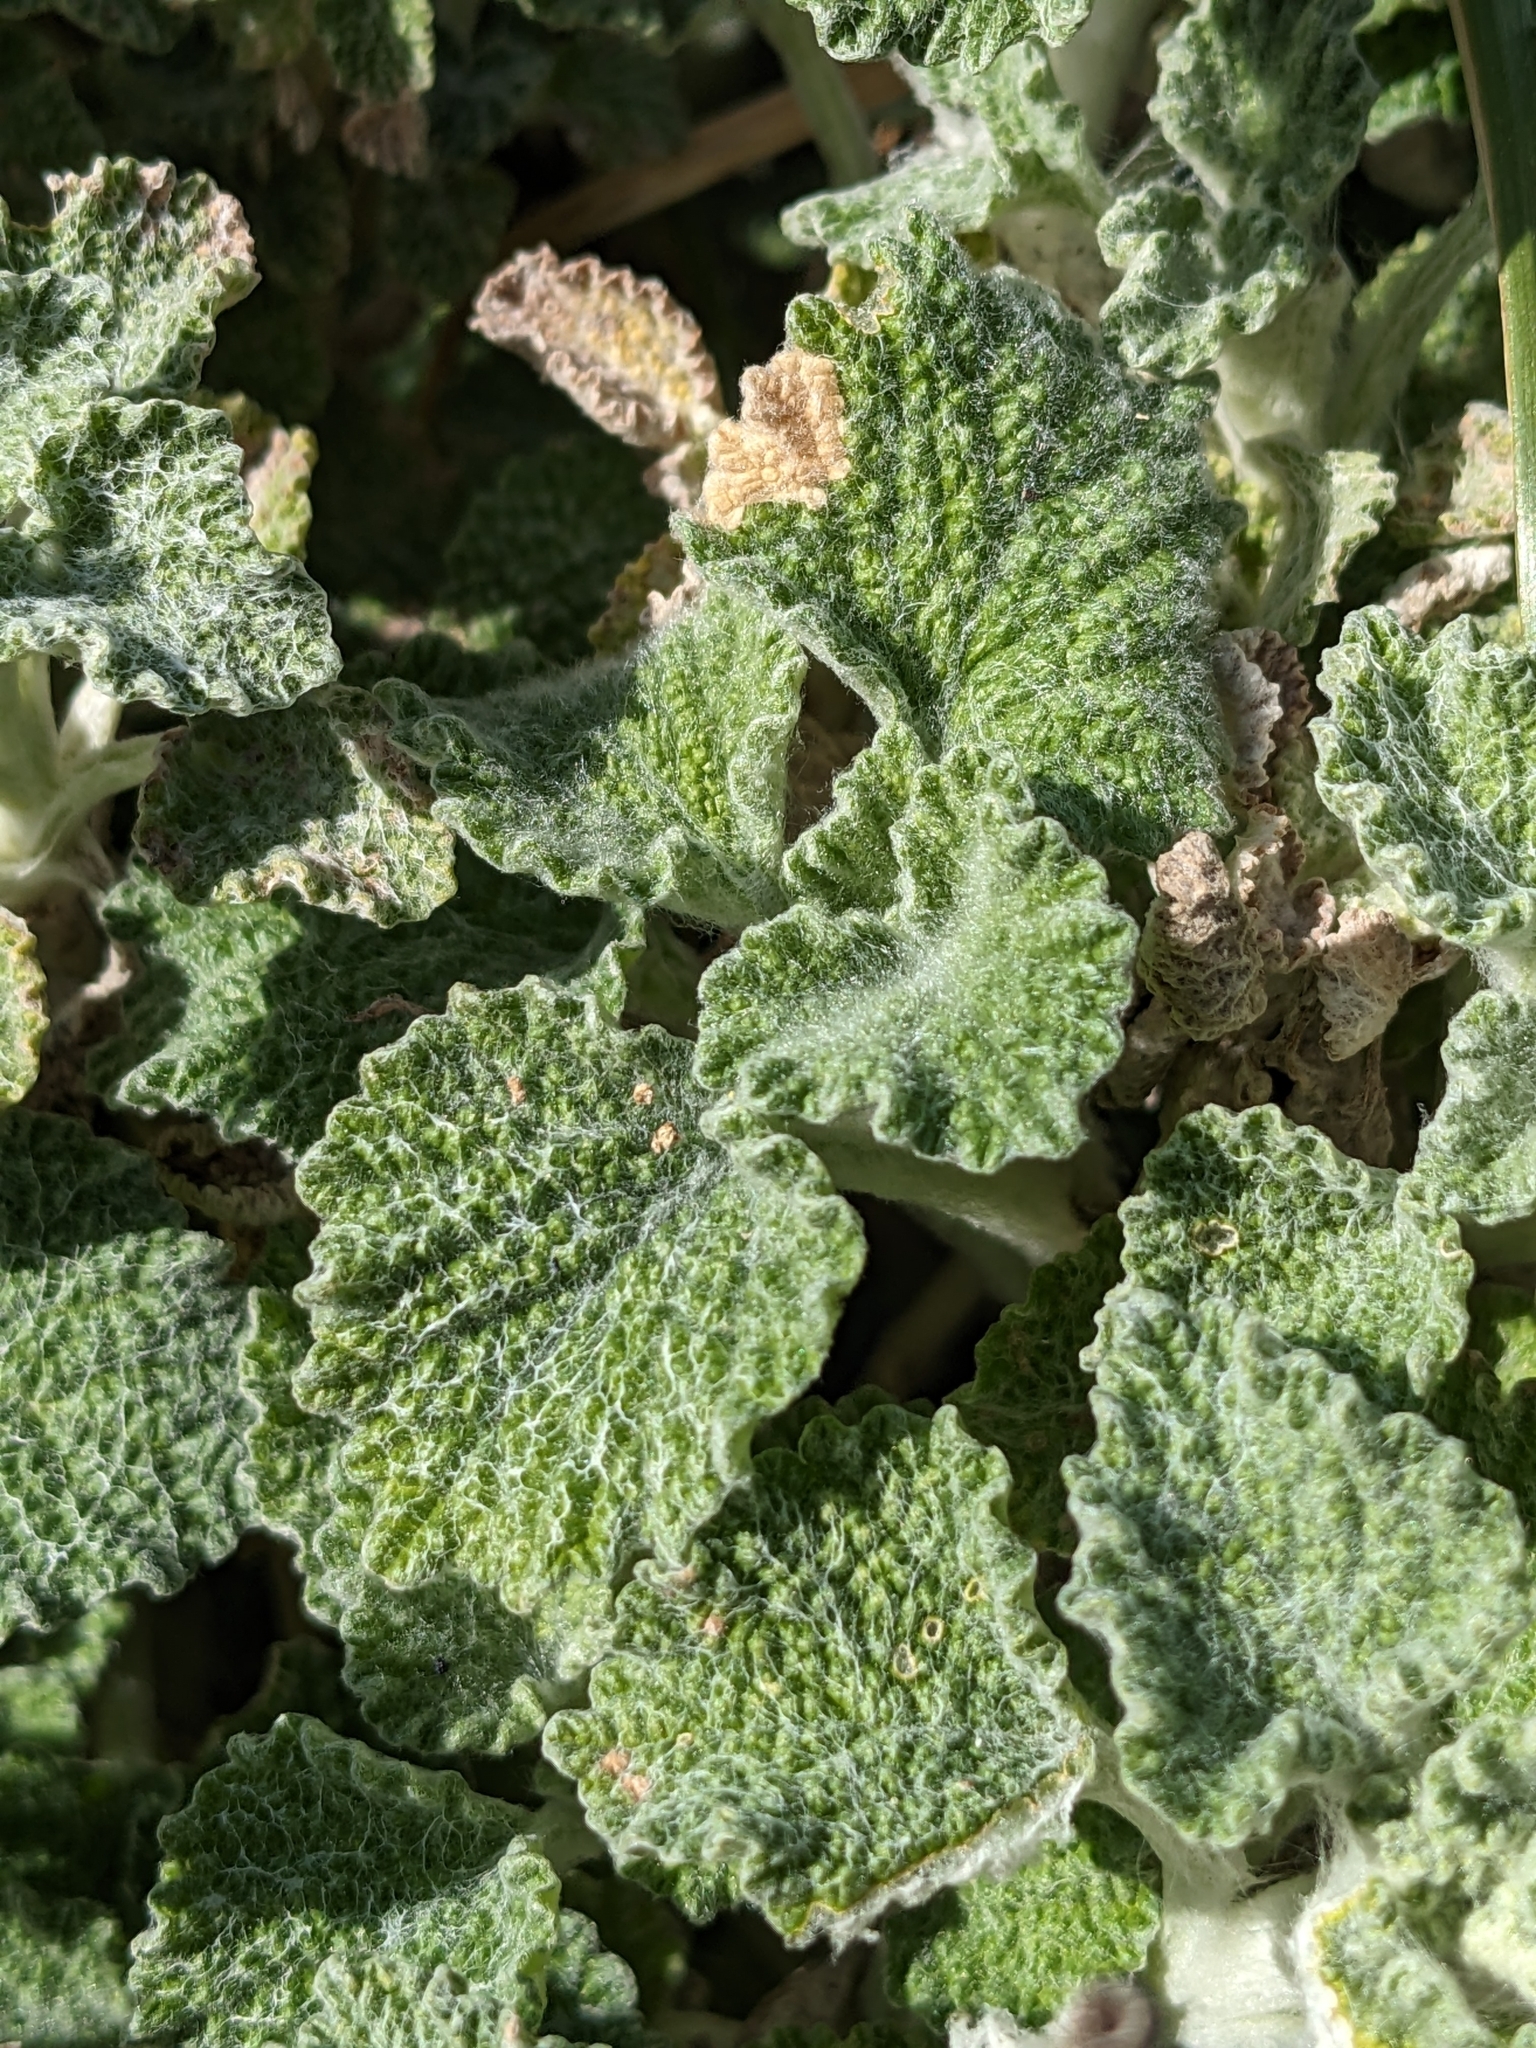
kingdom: Plantae
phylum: Tracheophyta
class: Magnoliopsida
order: Lamiales
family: Lamiaceae
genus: Marrubium
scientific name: Marrubium vulgare
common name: Horehound
